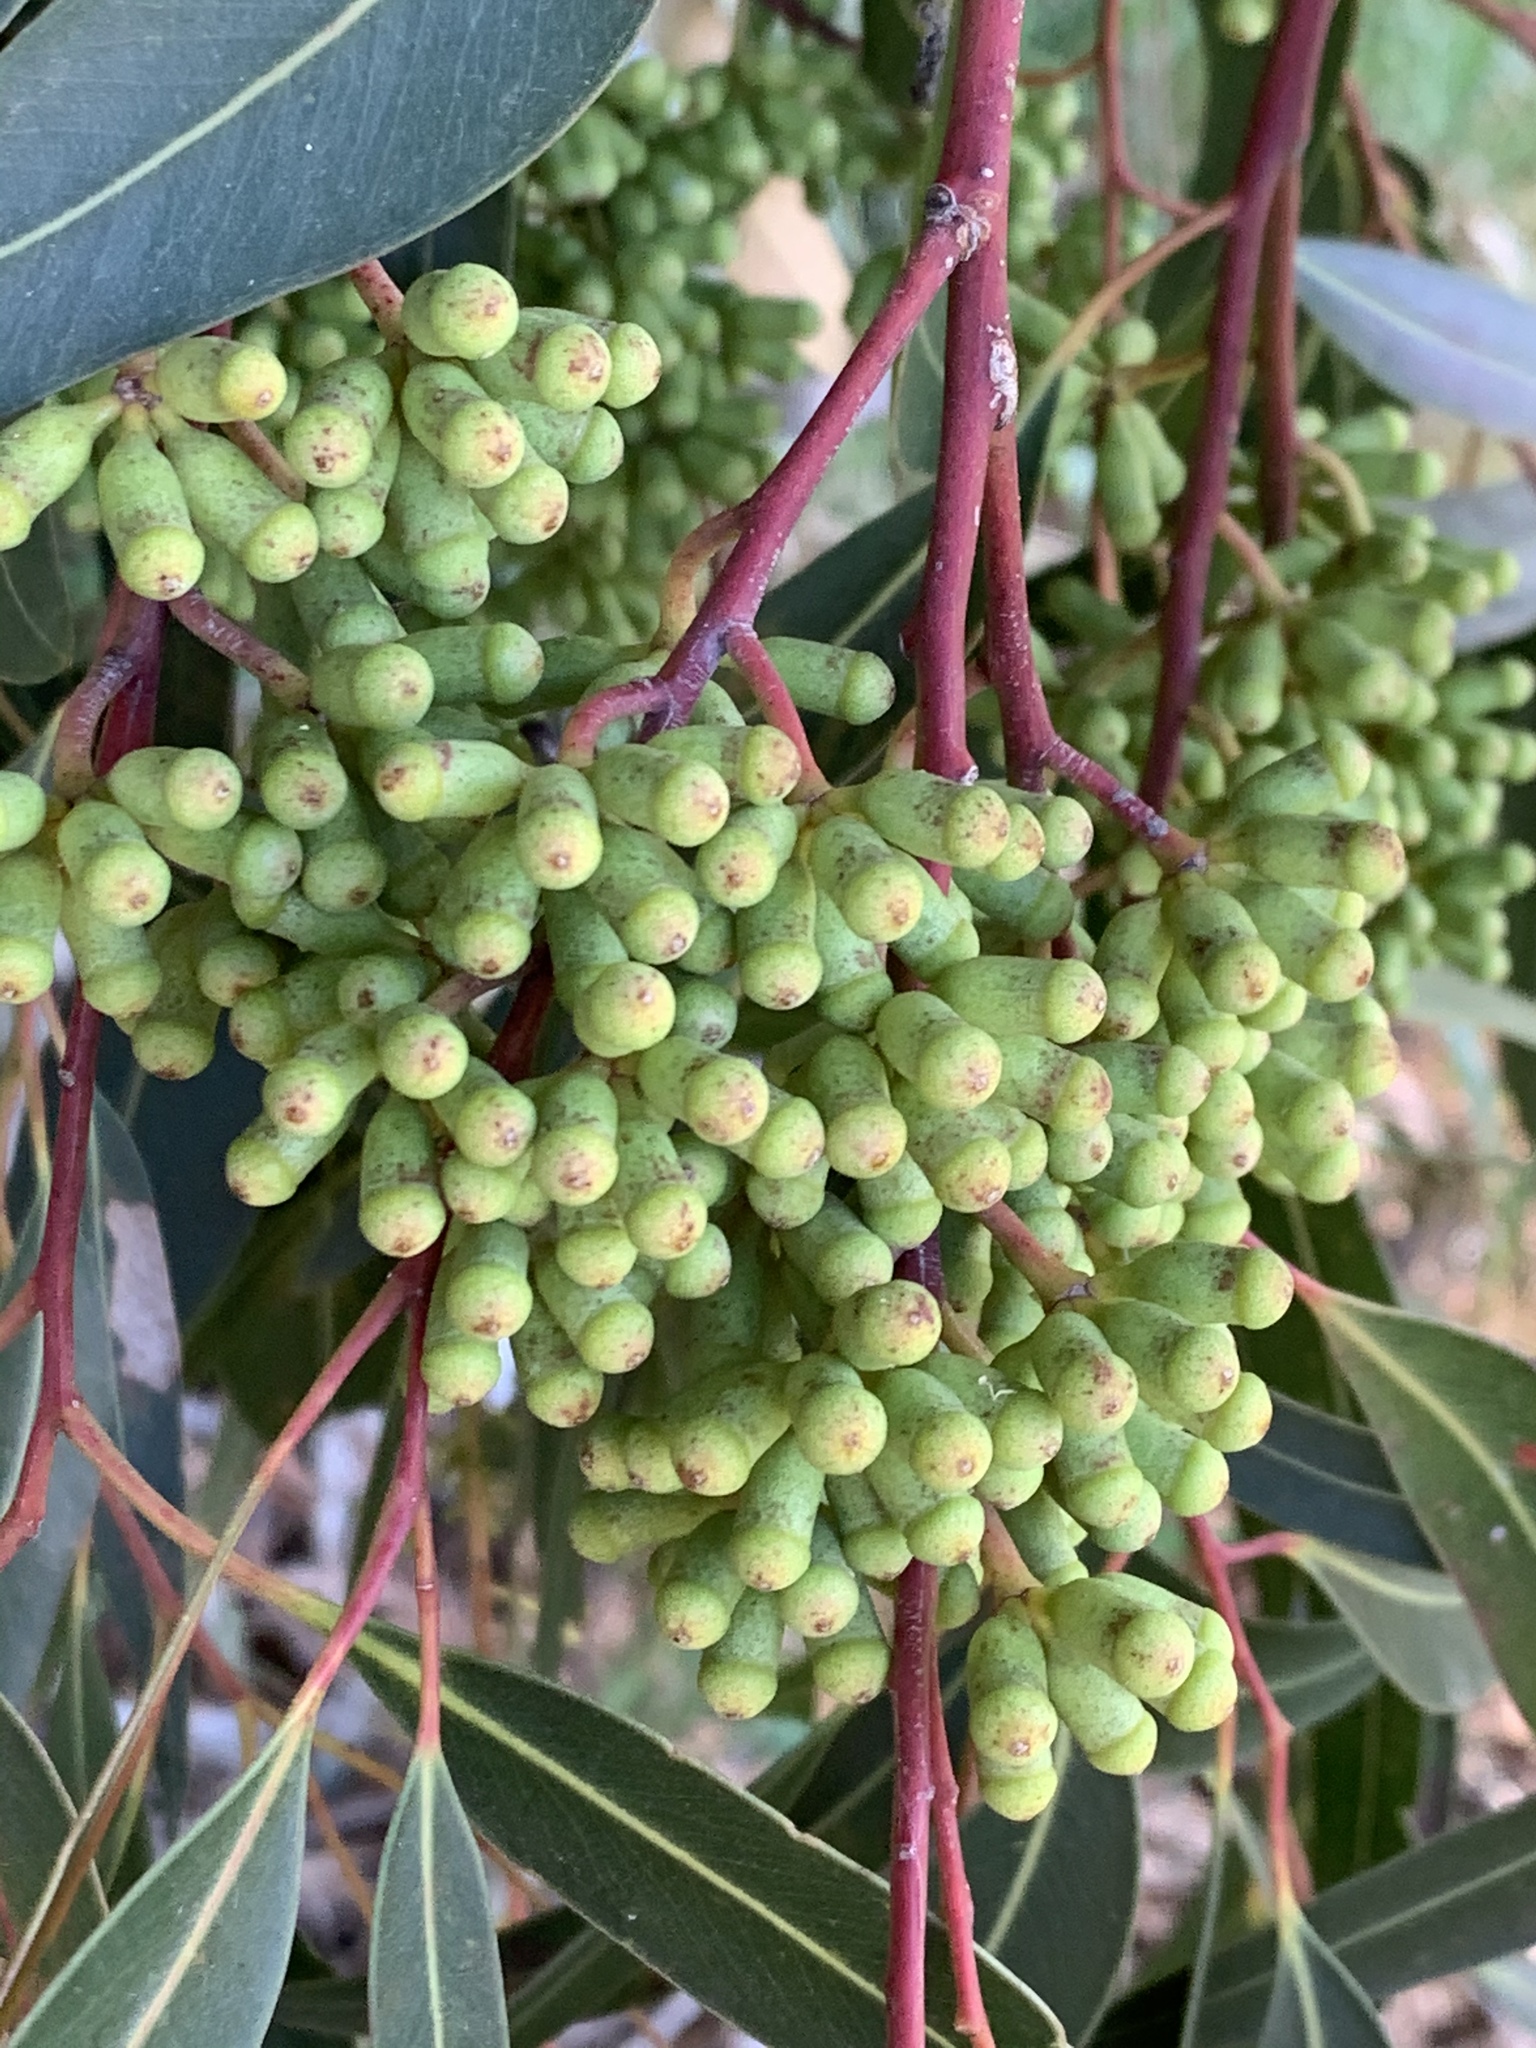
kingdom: Plantae
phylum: Tracheophyta
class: Magnoliopsida
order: Myrtales
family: Myrtaceae
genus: Eucalyptus
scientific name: Eucalyptus cladocalyx
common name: Sugargum
